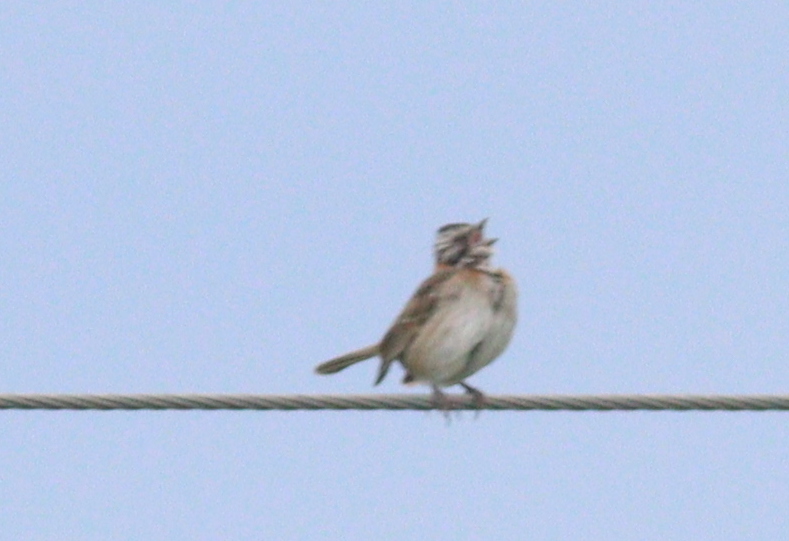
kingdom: Animalia
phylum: Chordata
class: Aves
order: Passeriformes
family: Passerellidae
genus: Zonotrichia
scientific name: Zonotrichia capensis
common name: Rufous-collared sparrow
